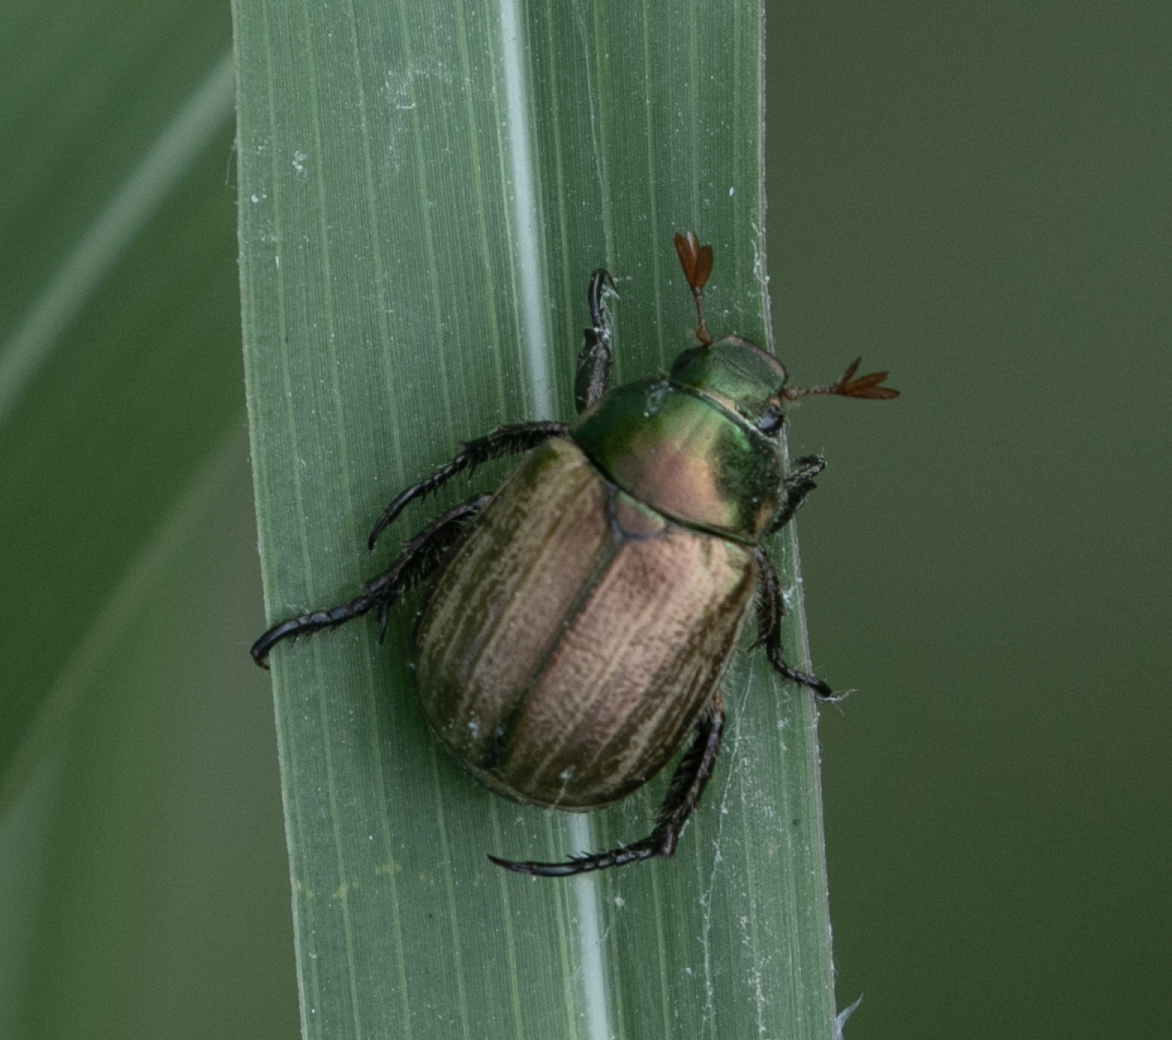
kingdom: Animalia
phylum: Arthropoda
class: Insecta
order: Coleoptera
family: Scarabaeidae
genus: Mimela
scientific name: Mimela junii
